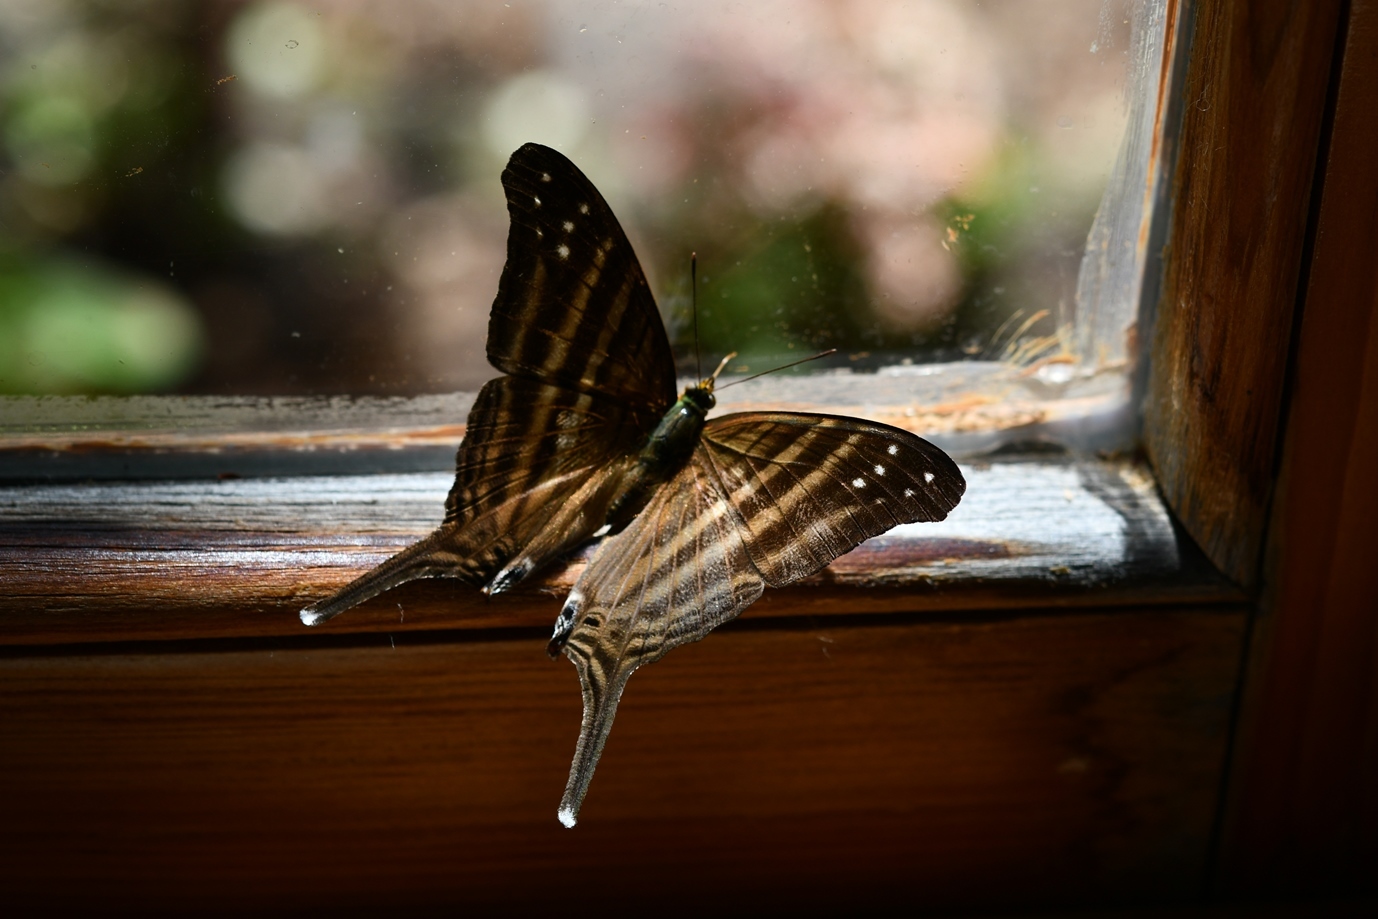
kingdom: Animalia
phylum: Arthropoda
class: Insecta
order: Lepidoptera
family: Nymphalidae
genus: Marpesia
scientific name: Marpesia chiron
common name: Many-banded daggerwing
